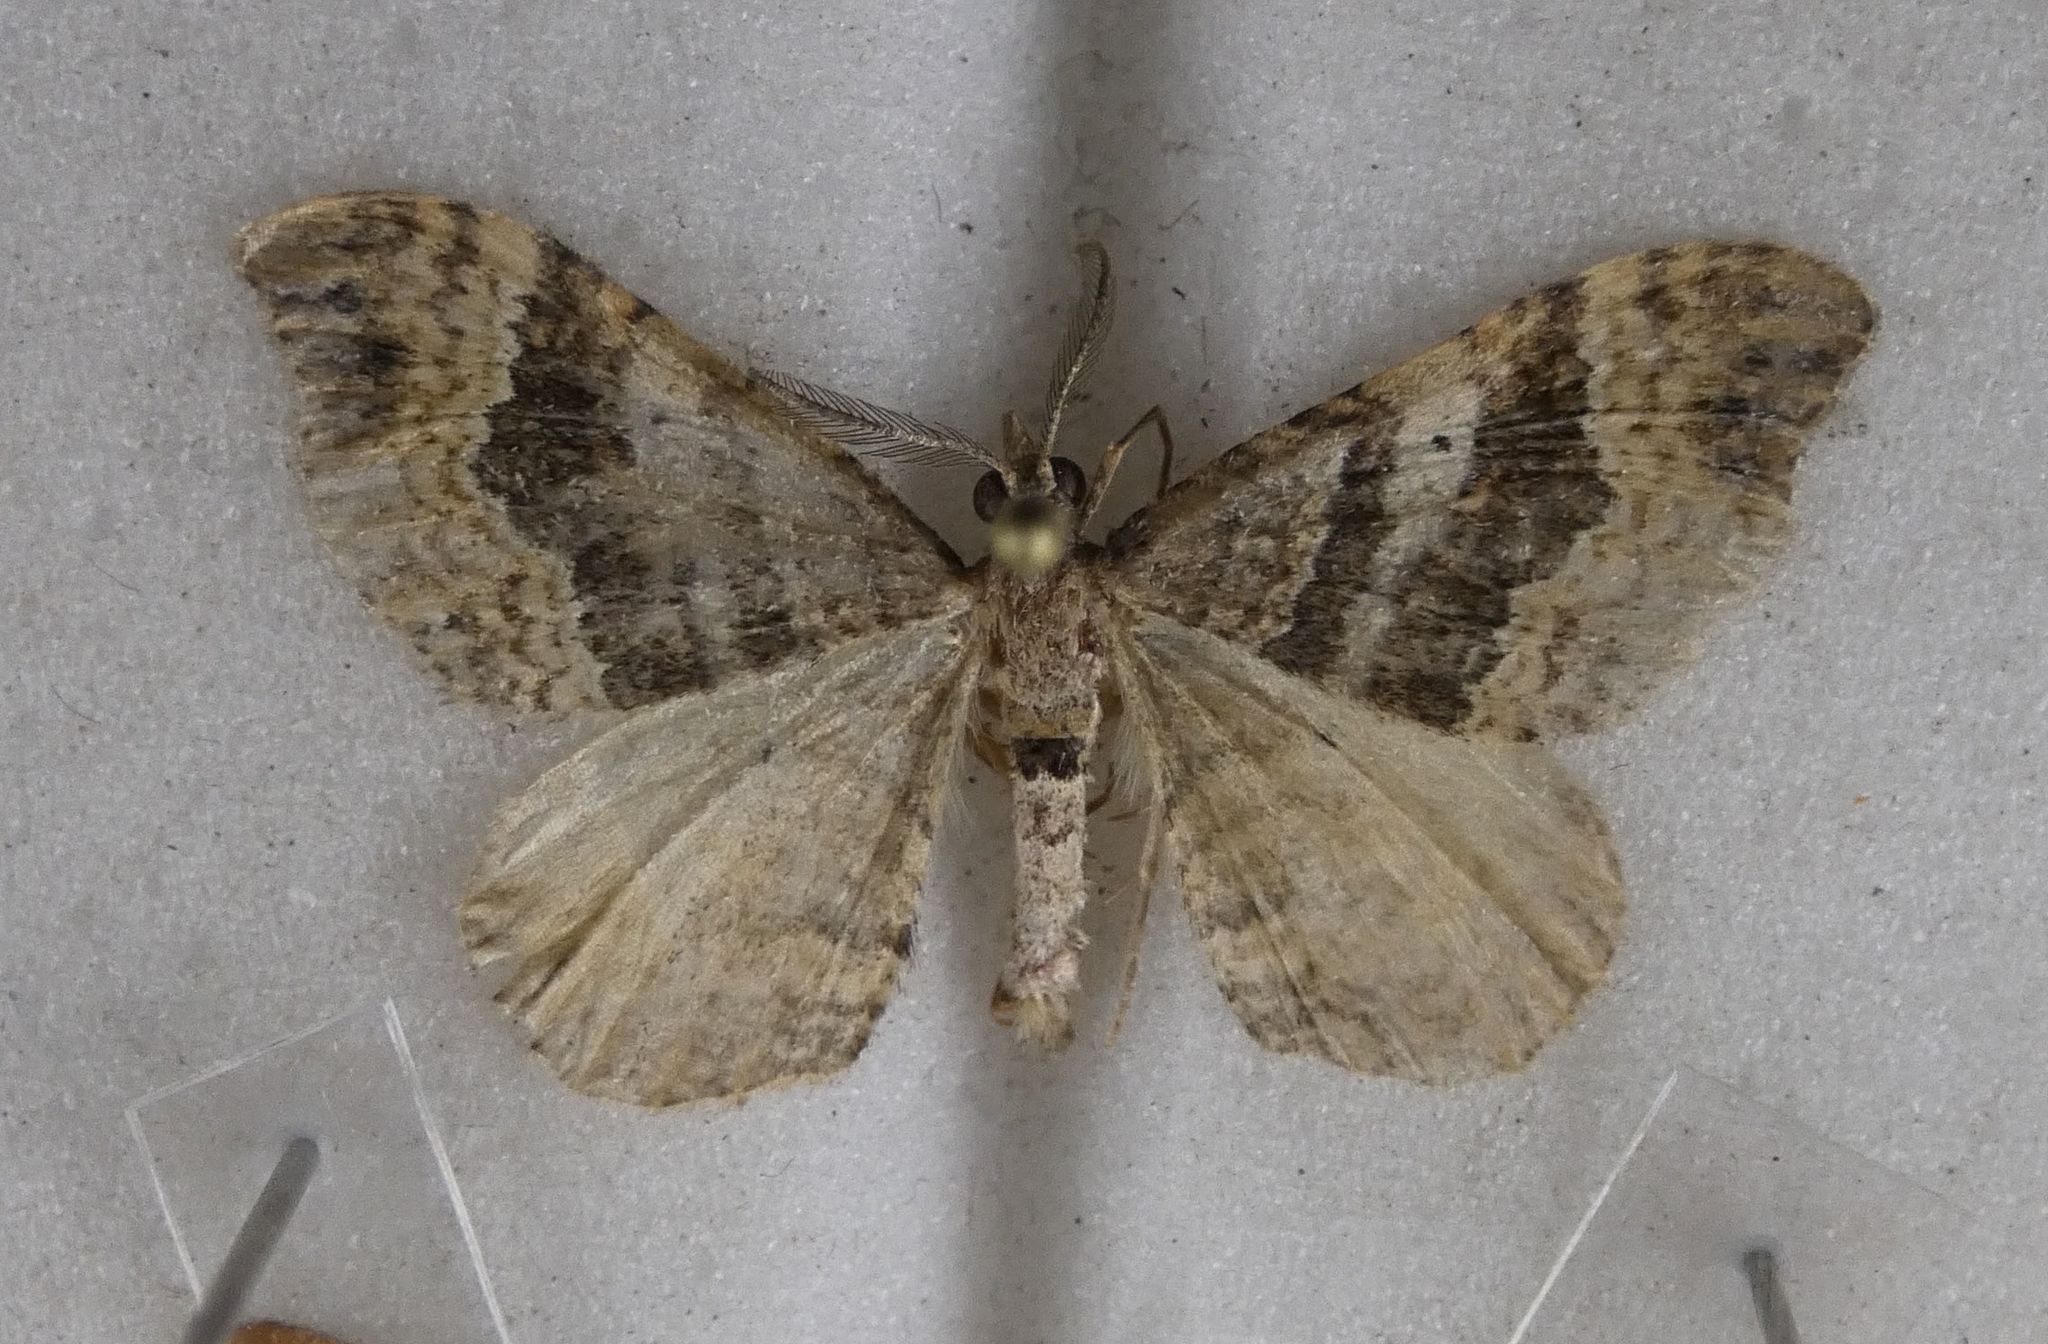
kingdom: Animalia
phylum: Arthropoda
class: Insecta
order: Lepidoptera
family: Geometridae
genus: Homodotis
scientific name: Homodotis megaspilata
